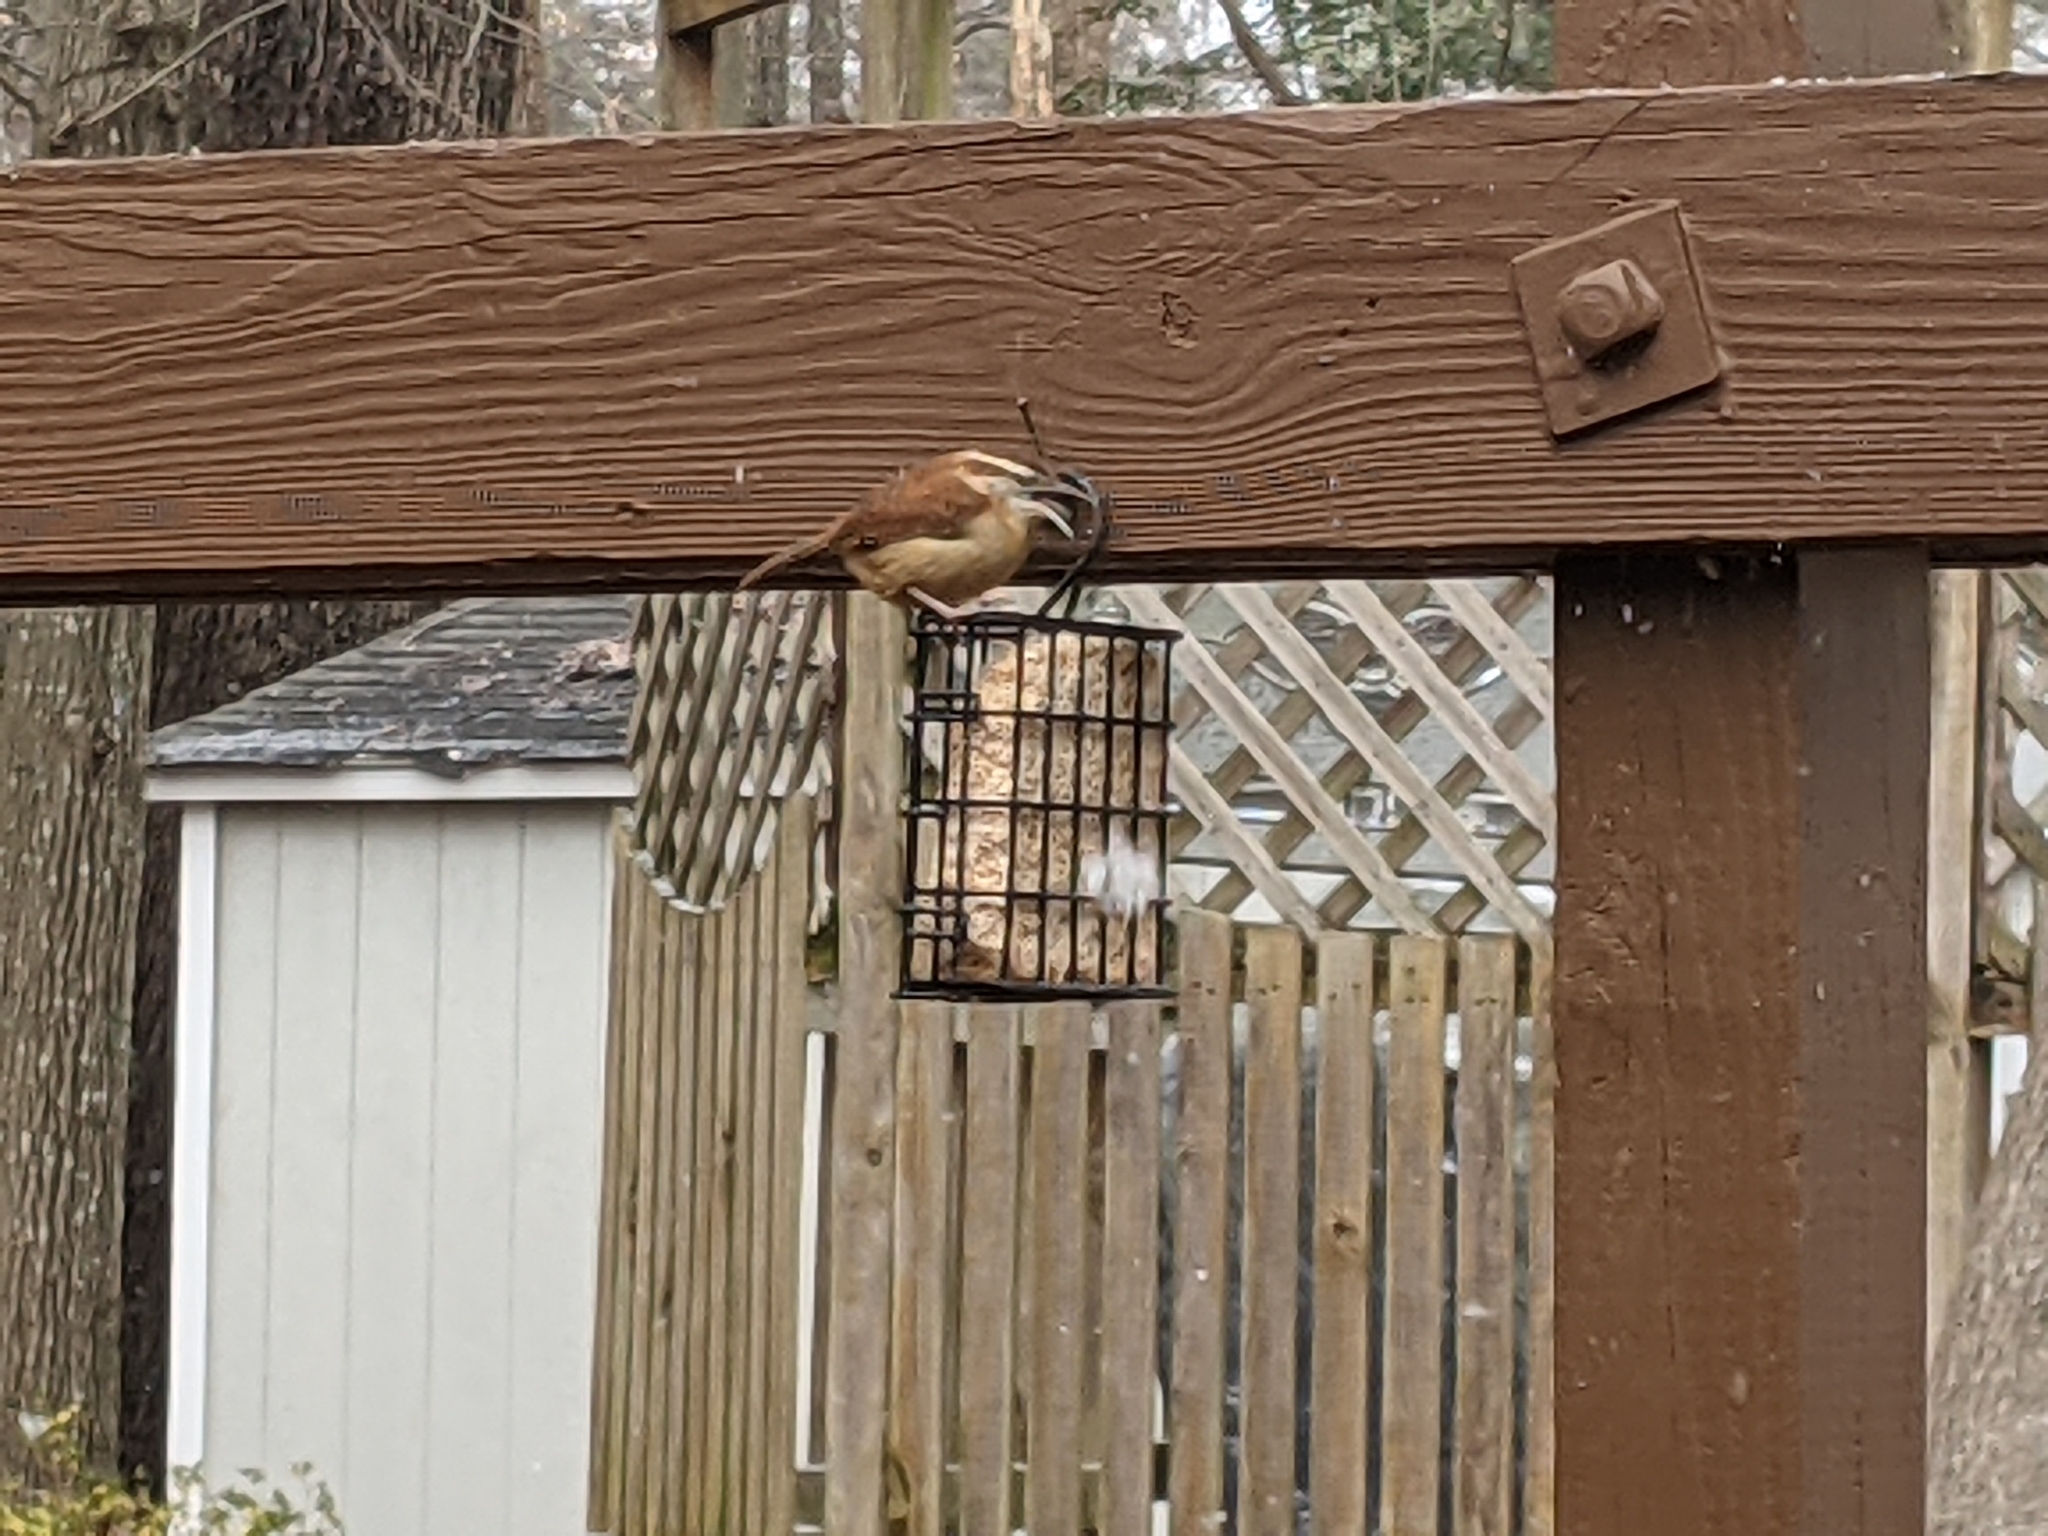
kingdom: Animalia
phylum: Chordata
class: Aves
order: Passeriformes
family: Troglodytidae
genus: Thryothorus
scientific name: Thryothorus ludovicianus
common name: Carolina wren
